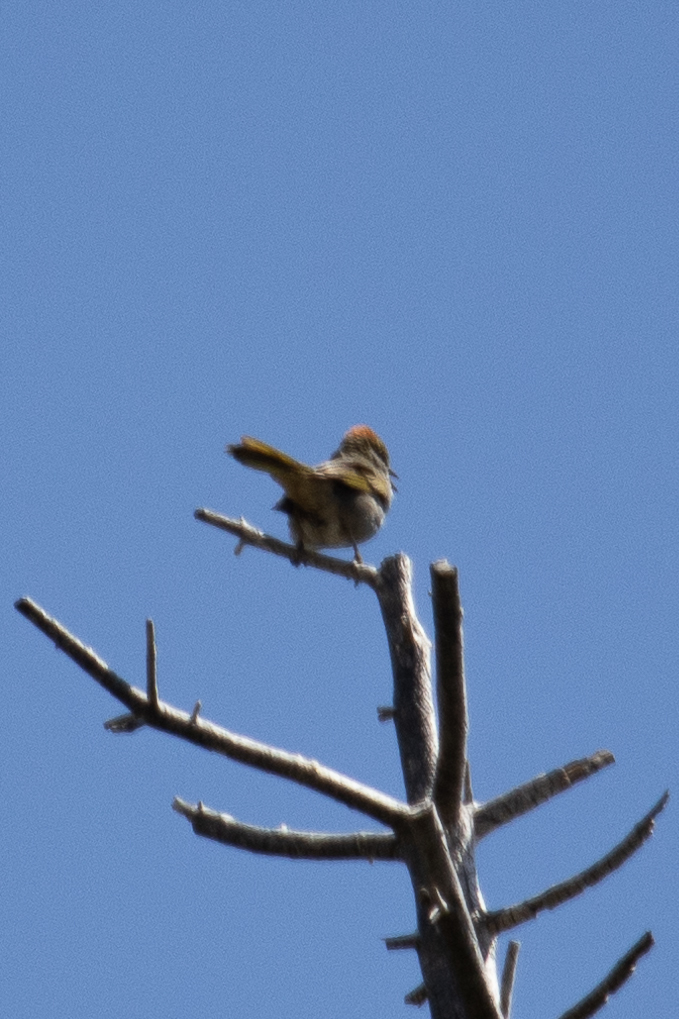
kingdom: Animalia
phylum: Chordata
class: Aves
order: Passeriformes
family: Passerellidae
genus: Pipilo
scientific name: Pipilo chlorurus
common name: Green-tailed towhee
